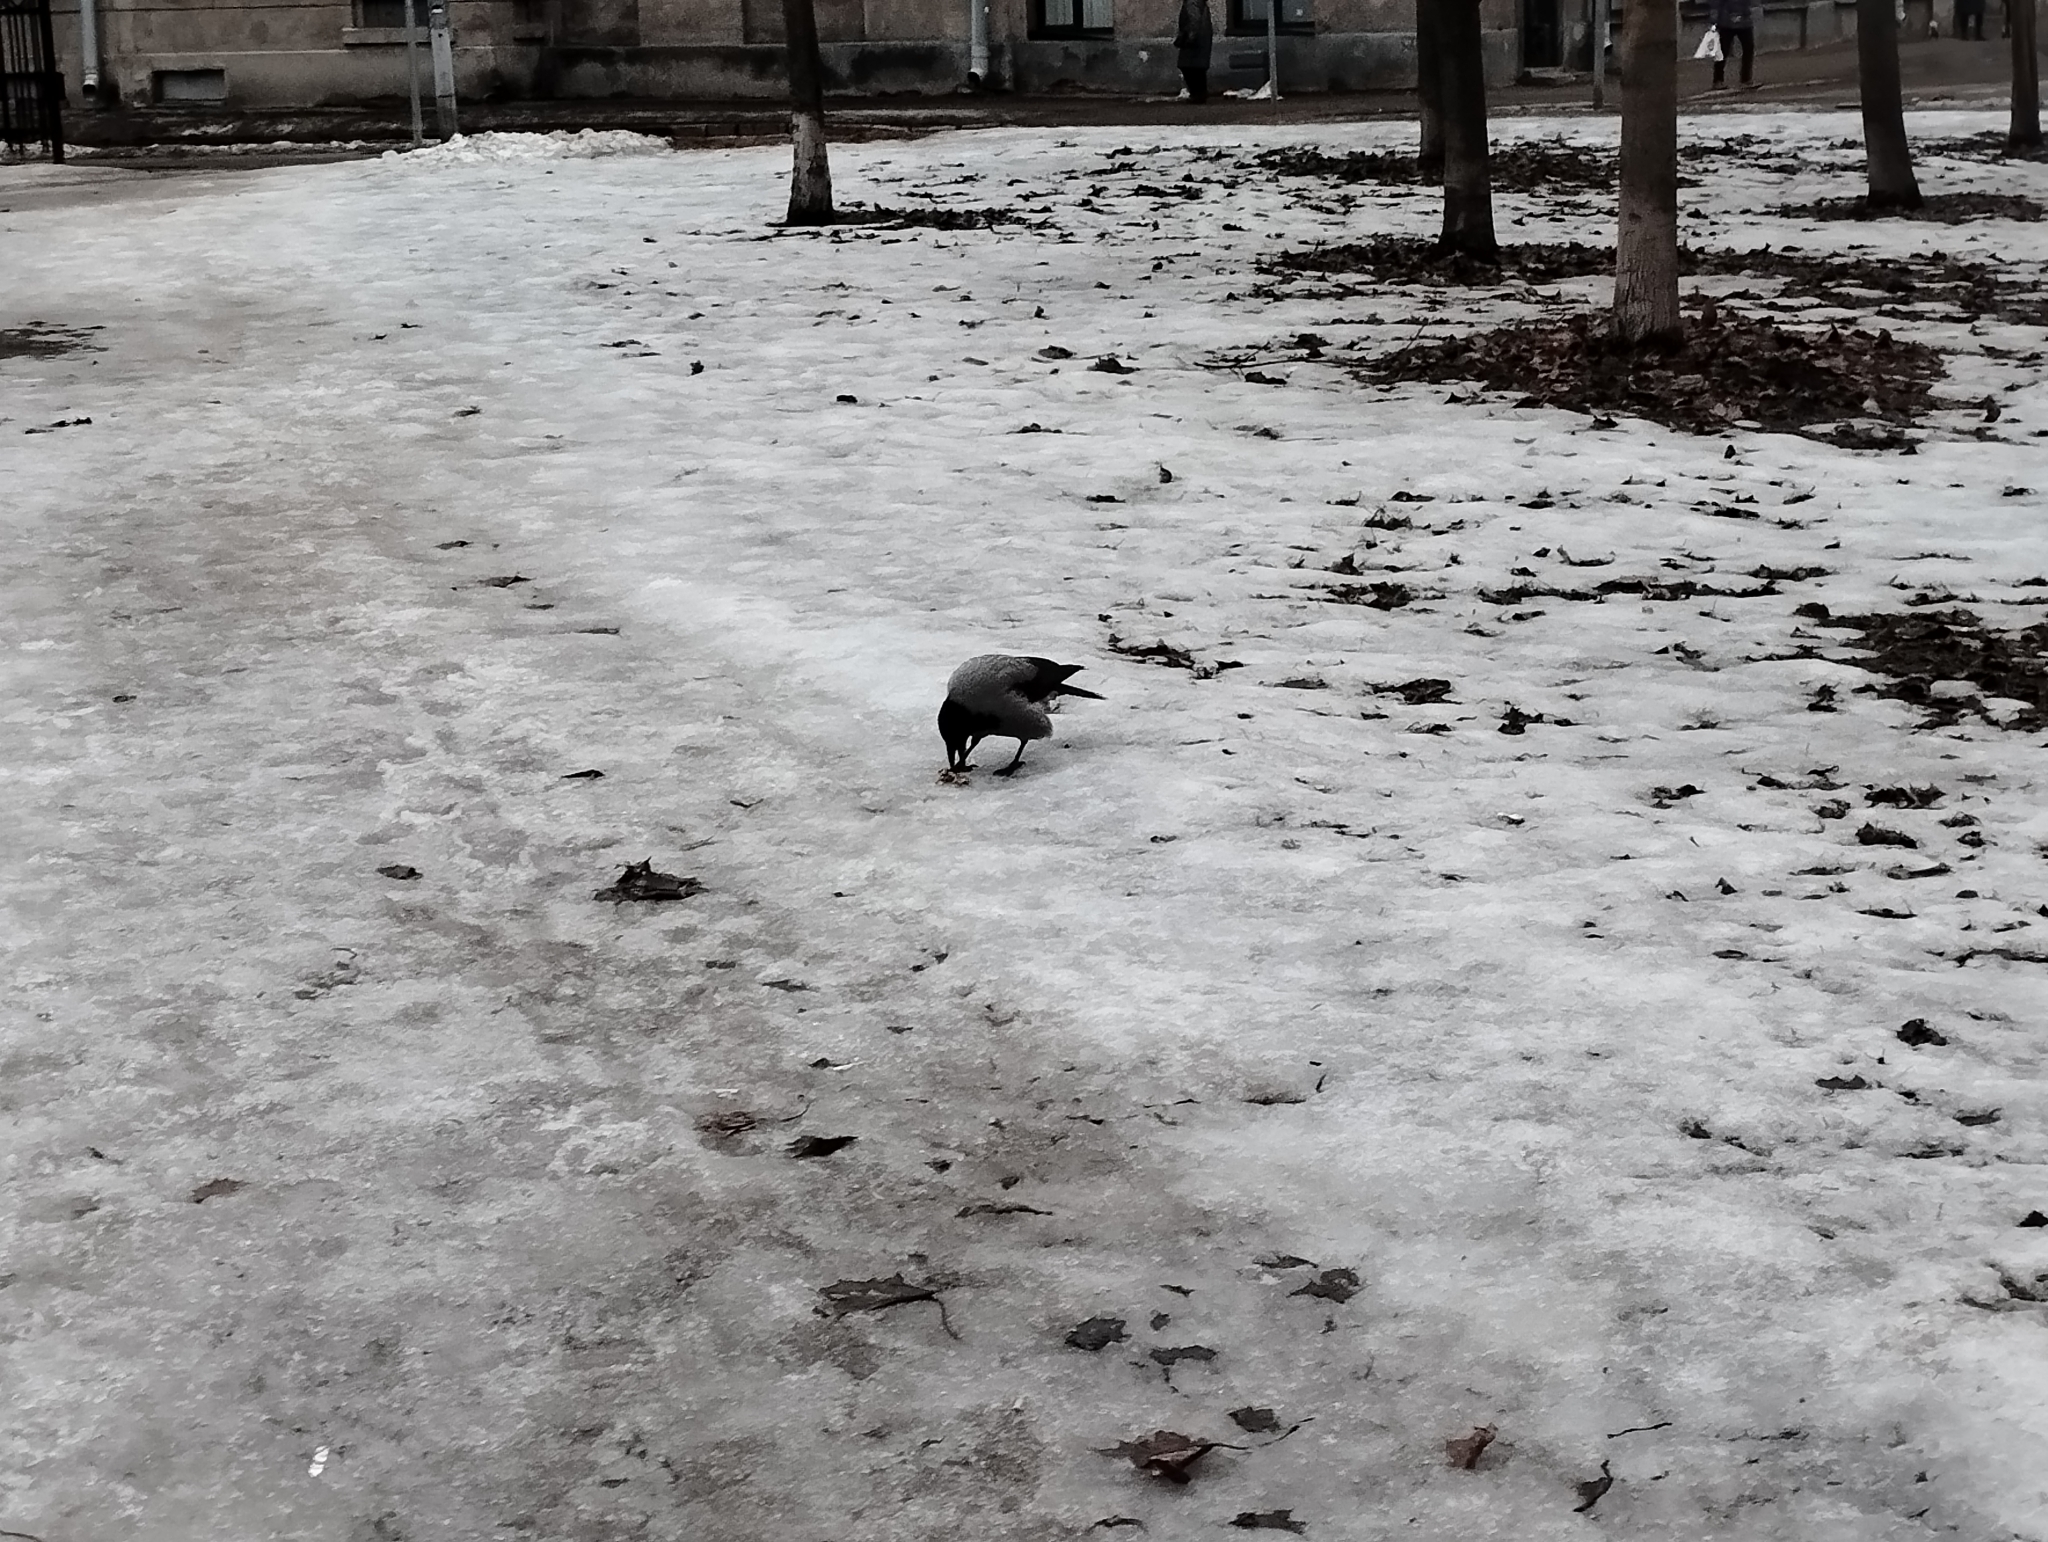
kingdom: Animalia
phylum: Chordata
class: Aves
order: Passeriformes
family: Corvidae
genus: Corvus
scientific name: Corvus cornix
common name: Hooded crow
